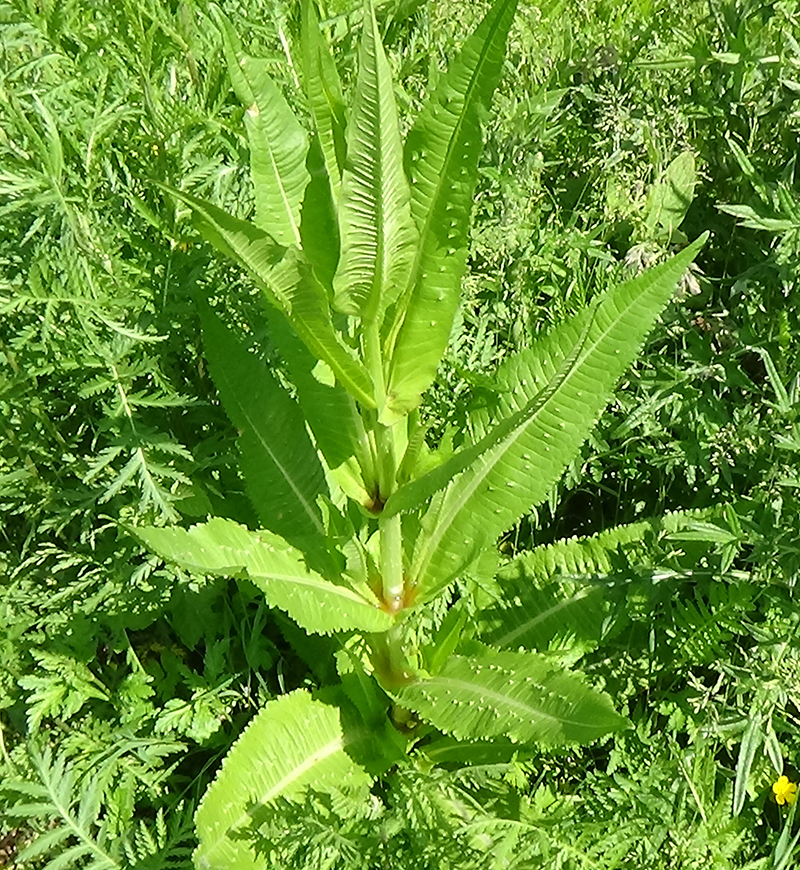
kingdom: Plantae
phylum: Tracheophyta
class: Magnoliopsida
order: Dipsacales
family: Caprifoliaceae
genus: Dipsacus
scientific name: Dipsacus fullonum
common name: Teasel
